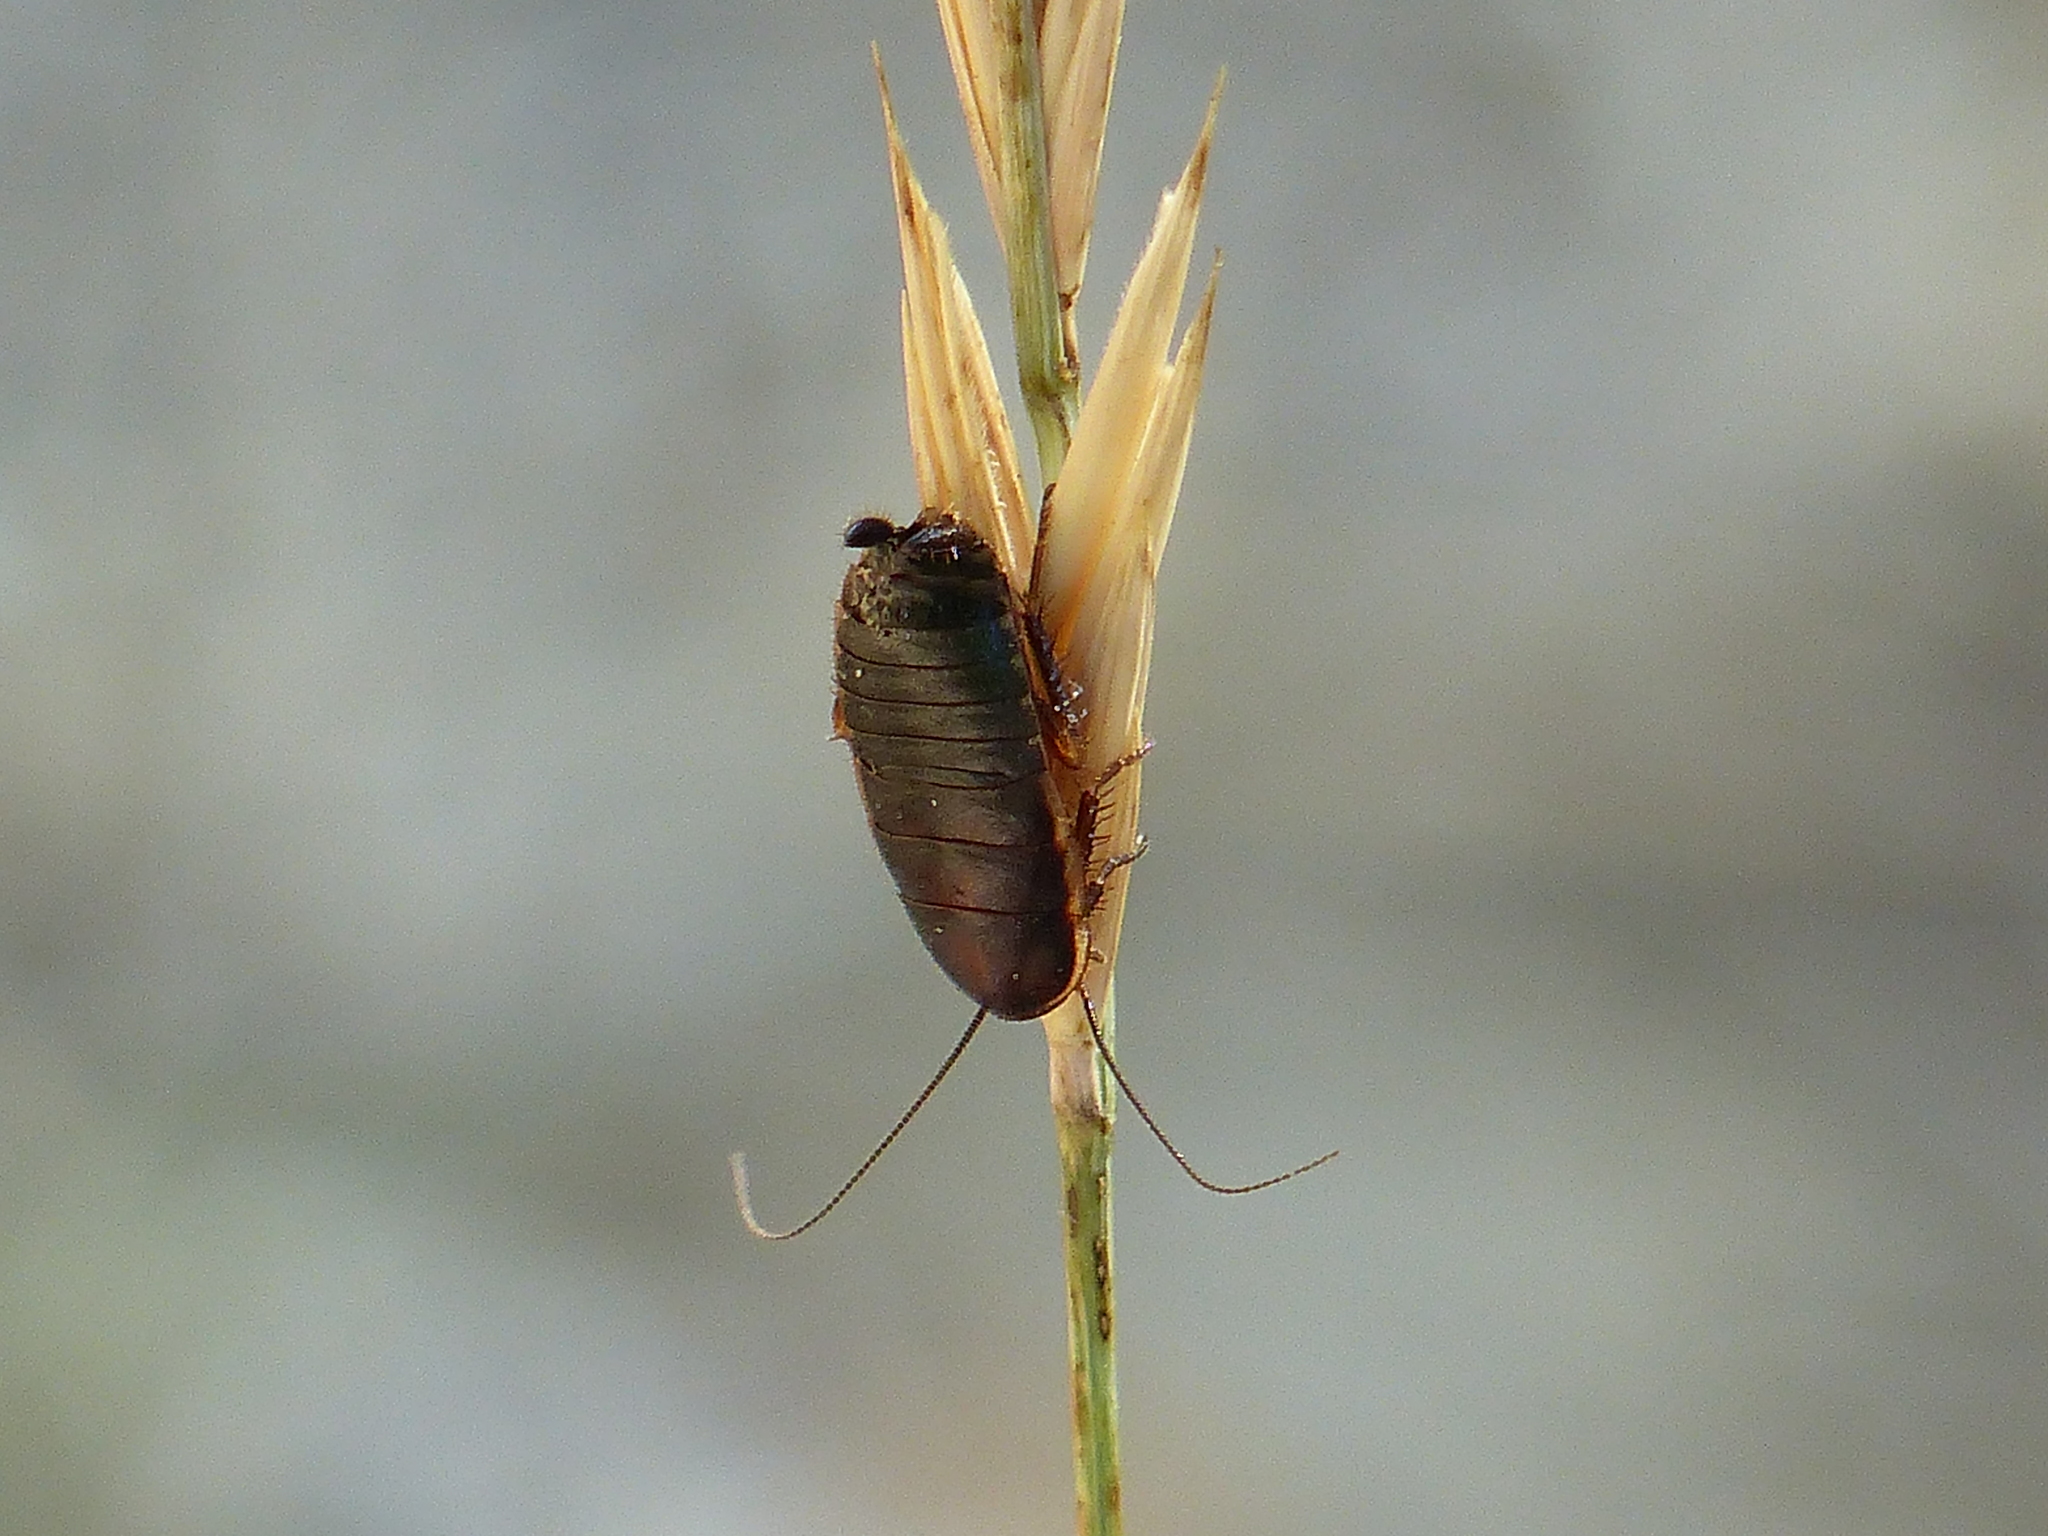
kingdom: Animalia
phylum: Arthropoda
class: Insecta
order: Blattodea
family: Ectobiidae
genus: Loboptera
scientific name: Loboptera canariensis
